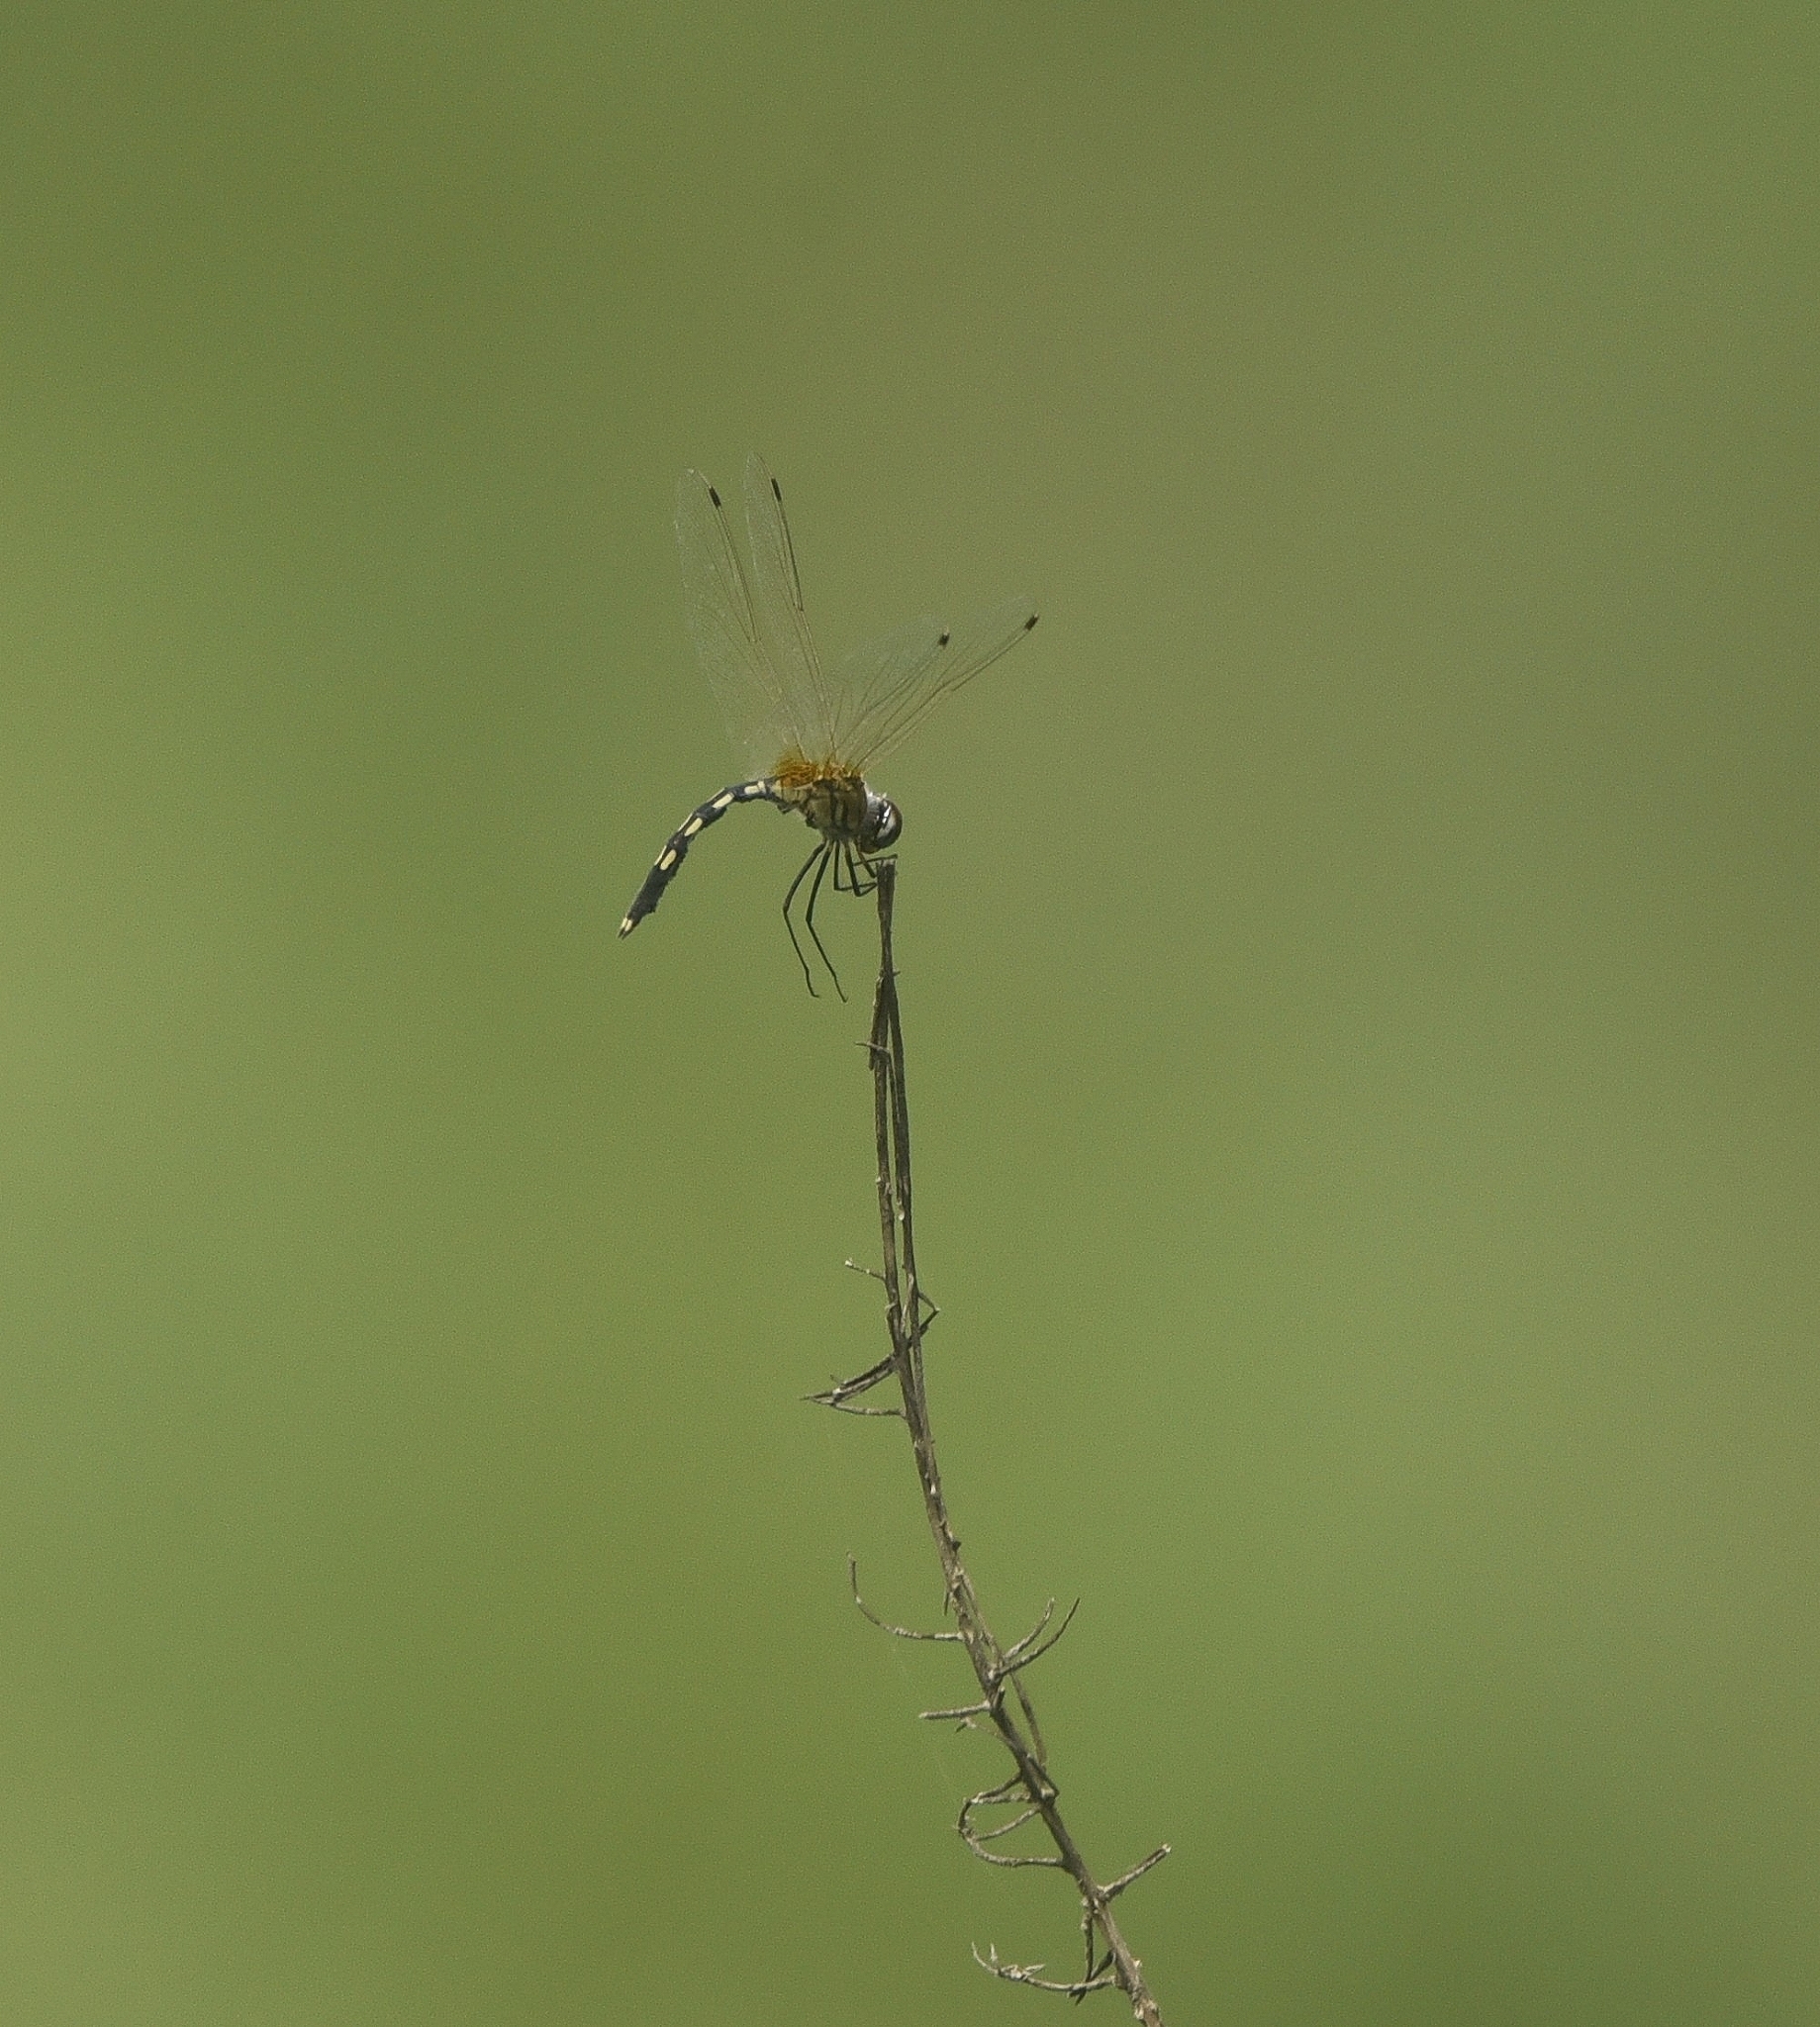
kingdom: Animalia
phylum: Arthropoda
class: Insecta
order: Odonata
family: Libellulidae
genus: Trithemis
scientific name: Trithemis pallidinervis
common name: Dancing dropwing
